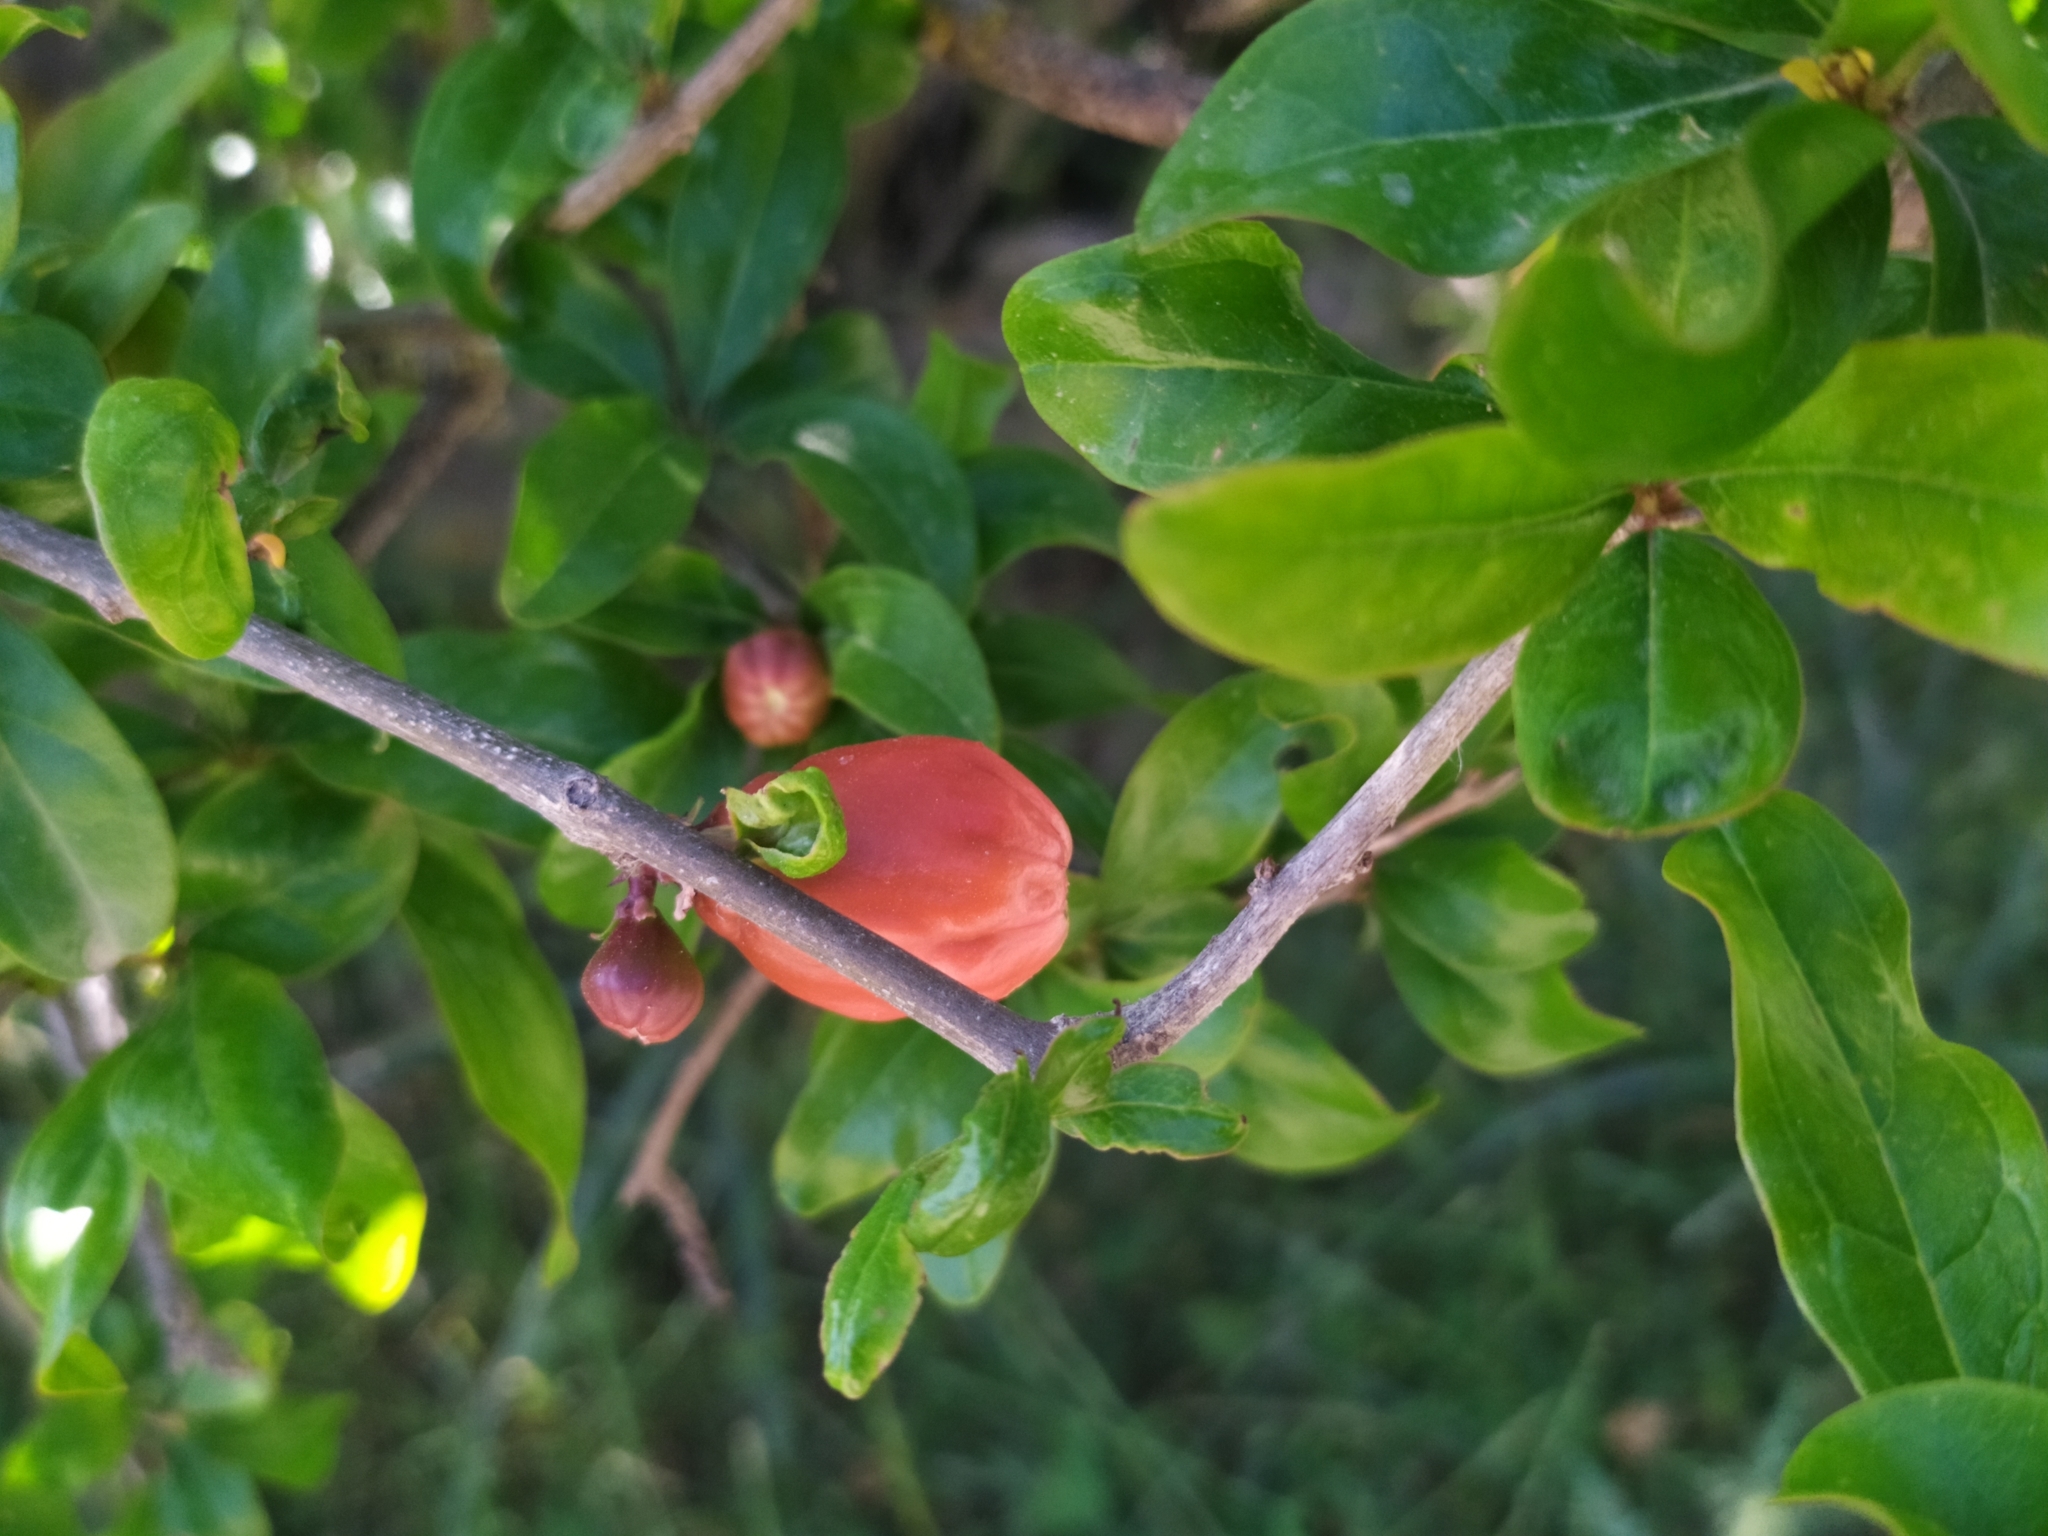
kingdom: Plantae
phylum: Tracheophyta
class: Magnoliopsida
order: Myrtales
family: Lythraceae
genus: Punica
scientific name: Punica granatum
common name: Pomegranate
